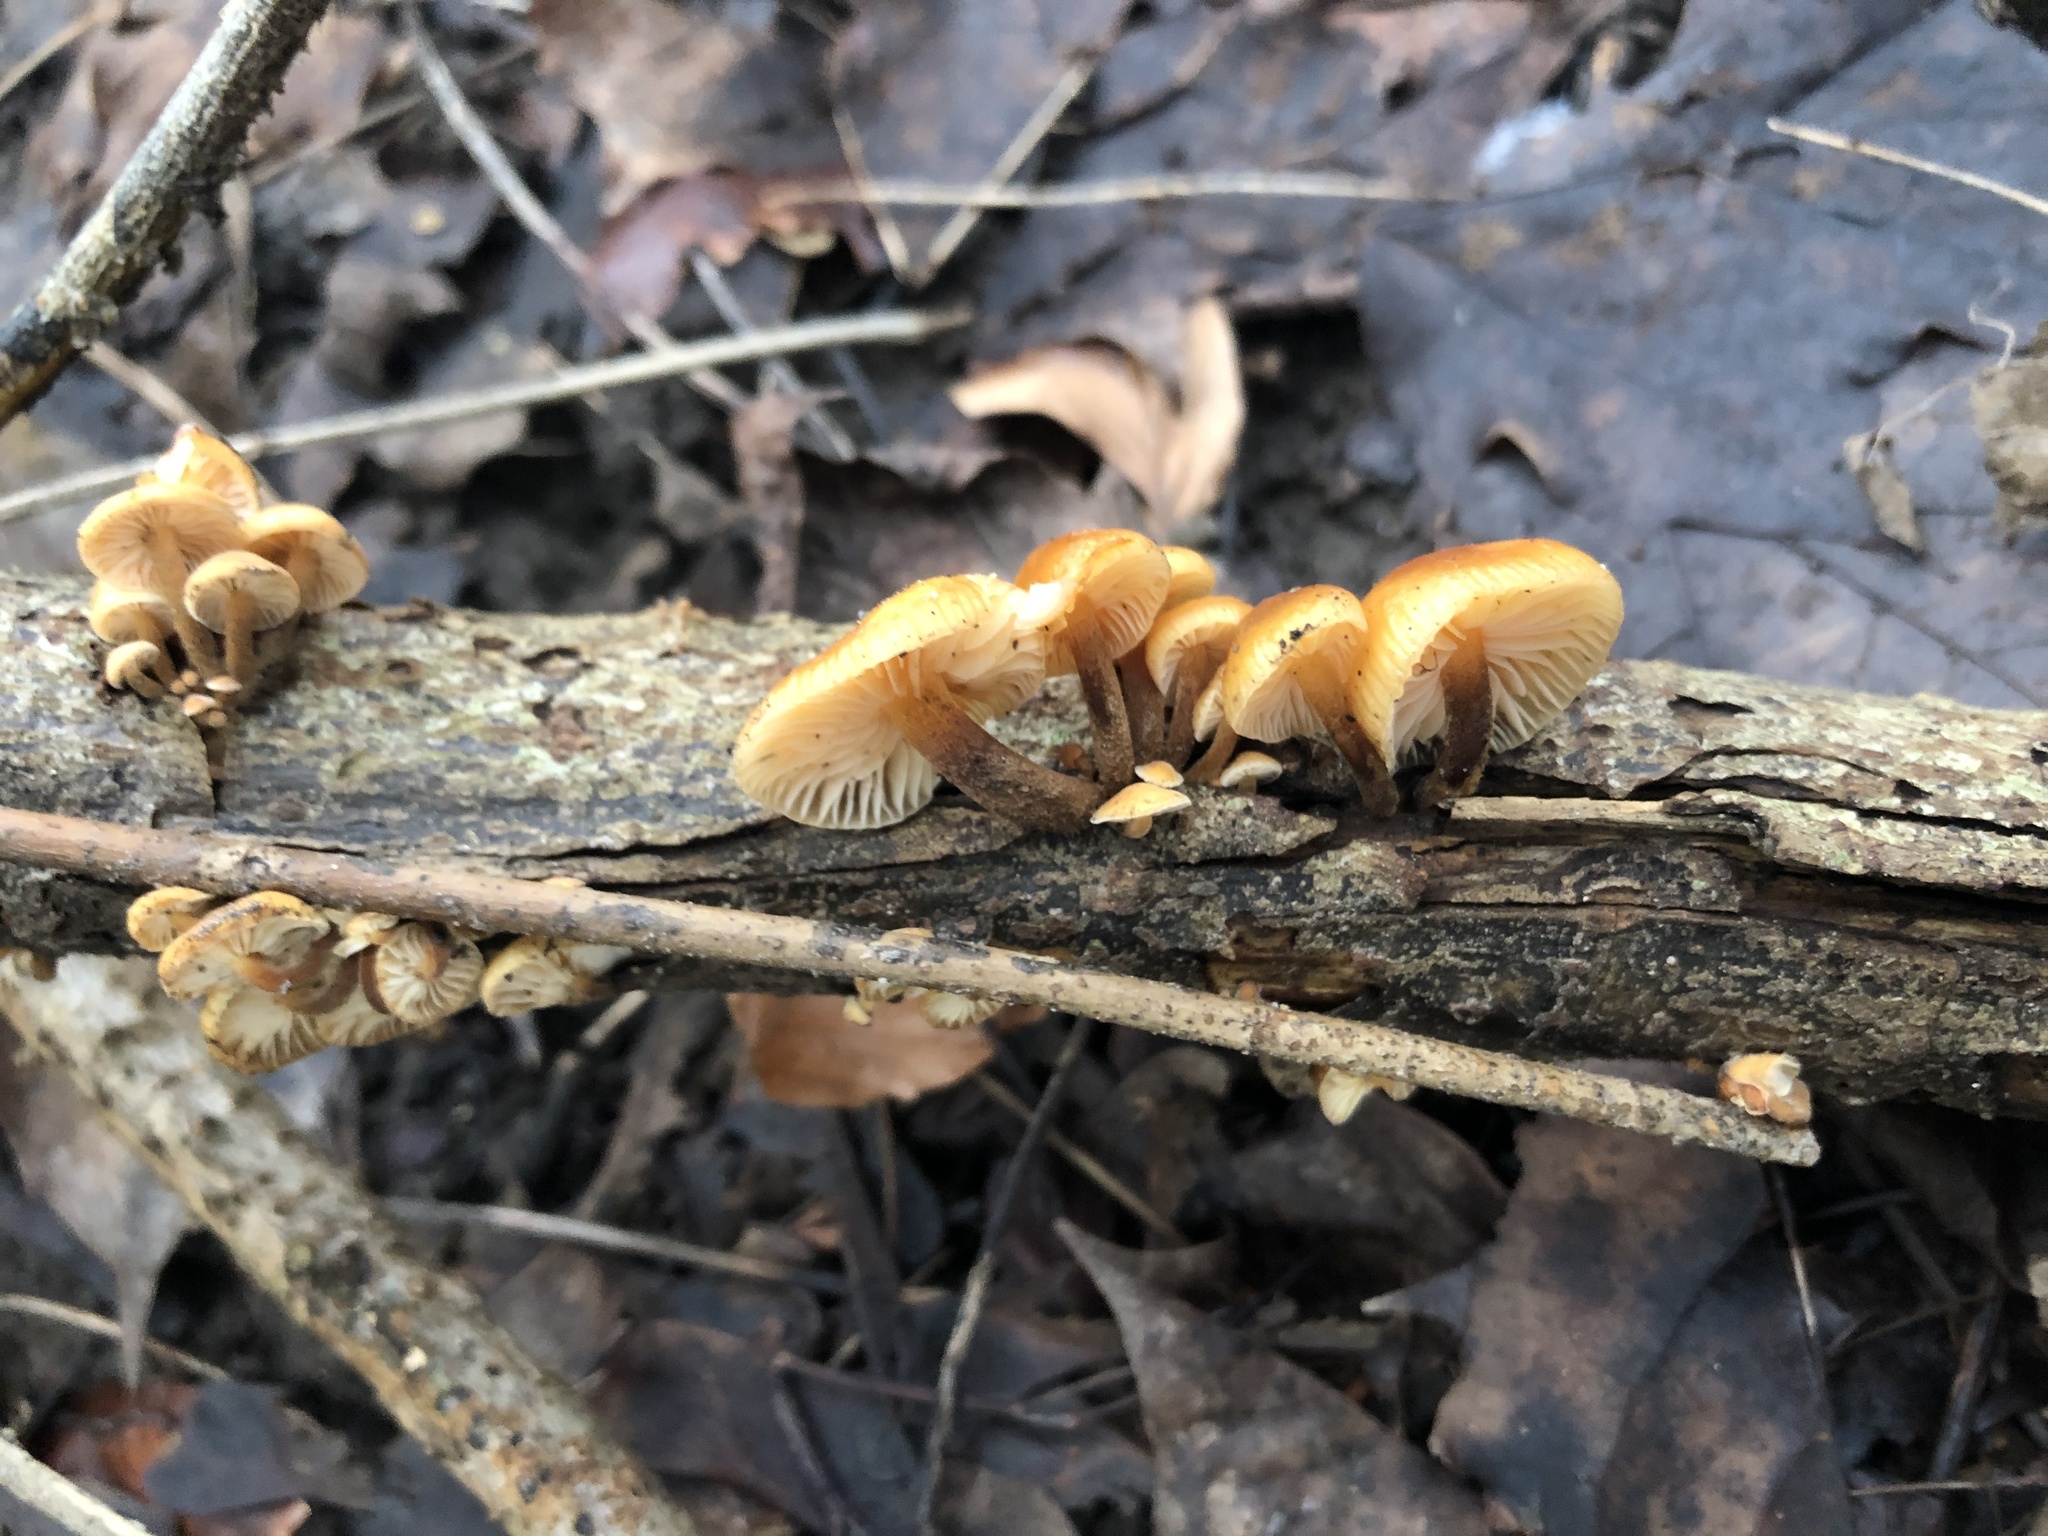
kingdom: Fungi
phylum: Basidiomycota
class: Agaricomycetes
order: Agaricales
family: Physalacriaceae
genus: Flammulina
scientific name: Flammulina
